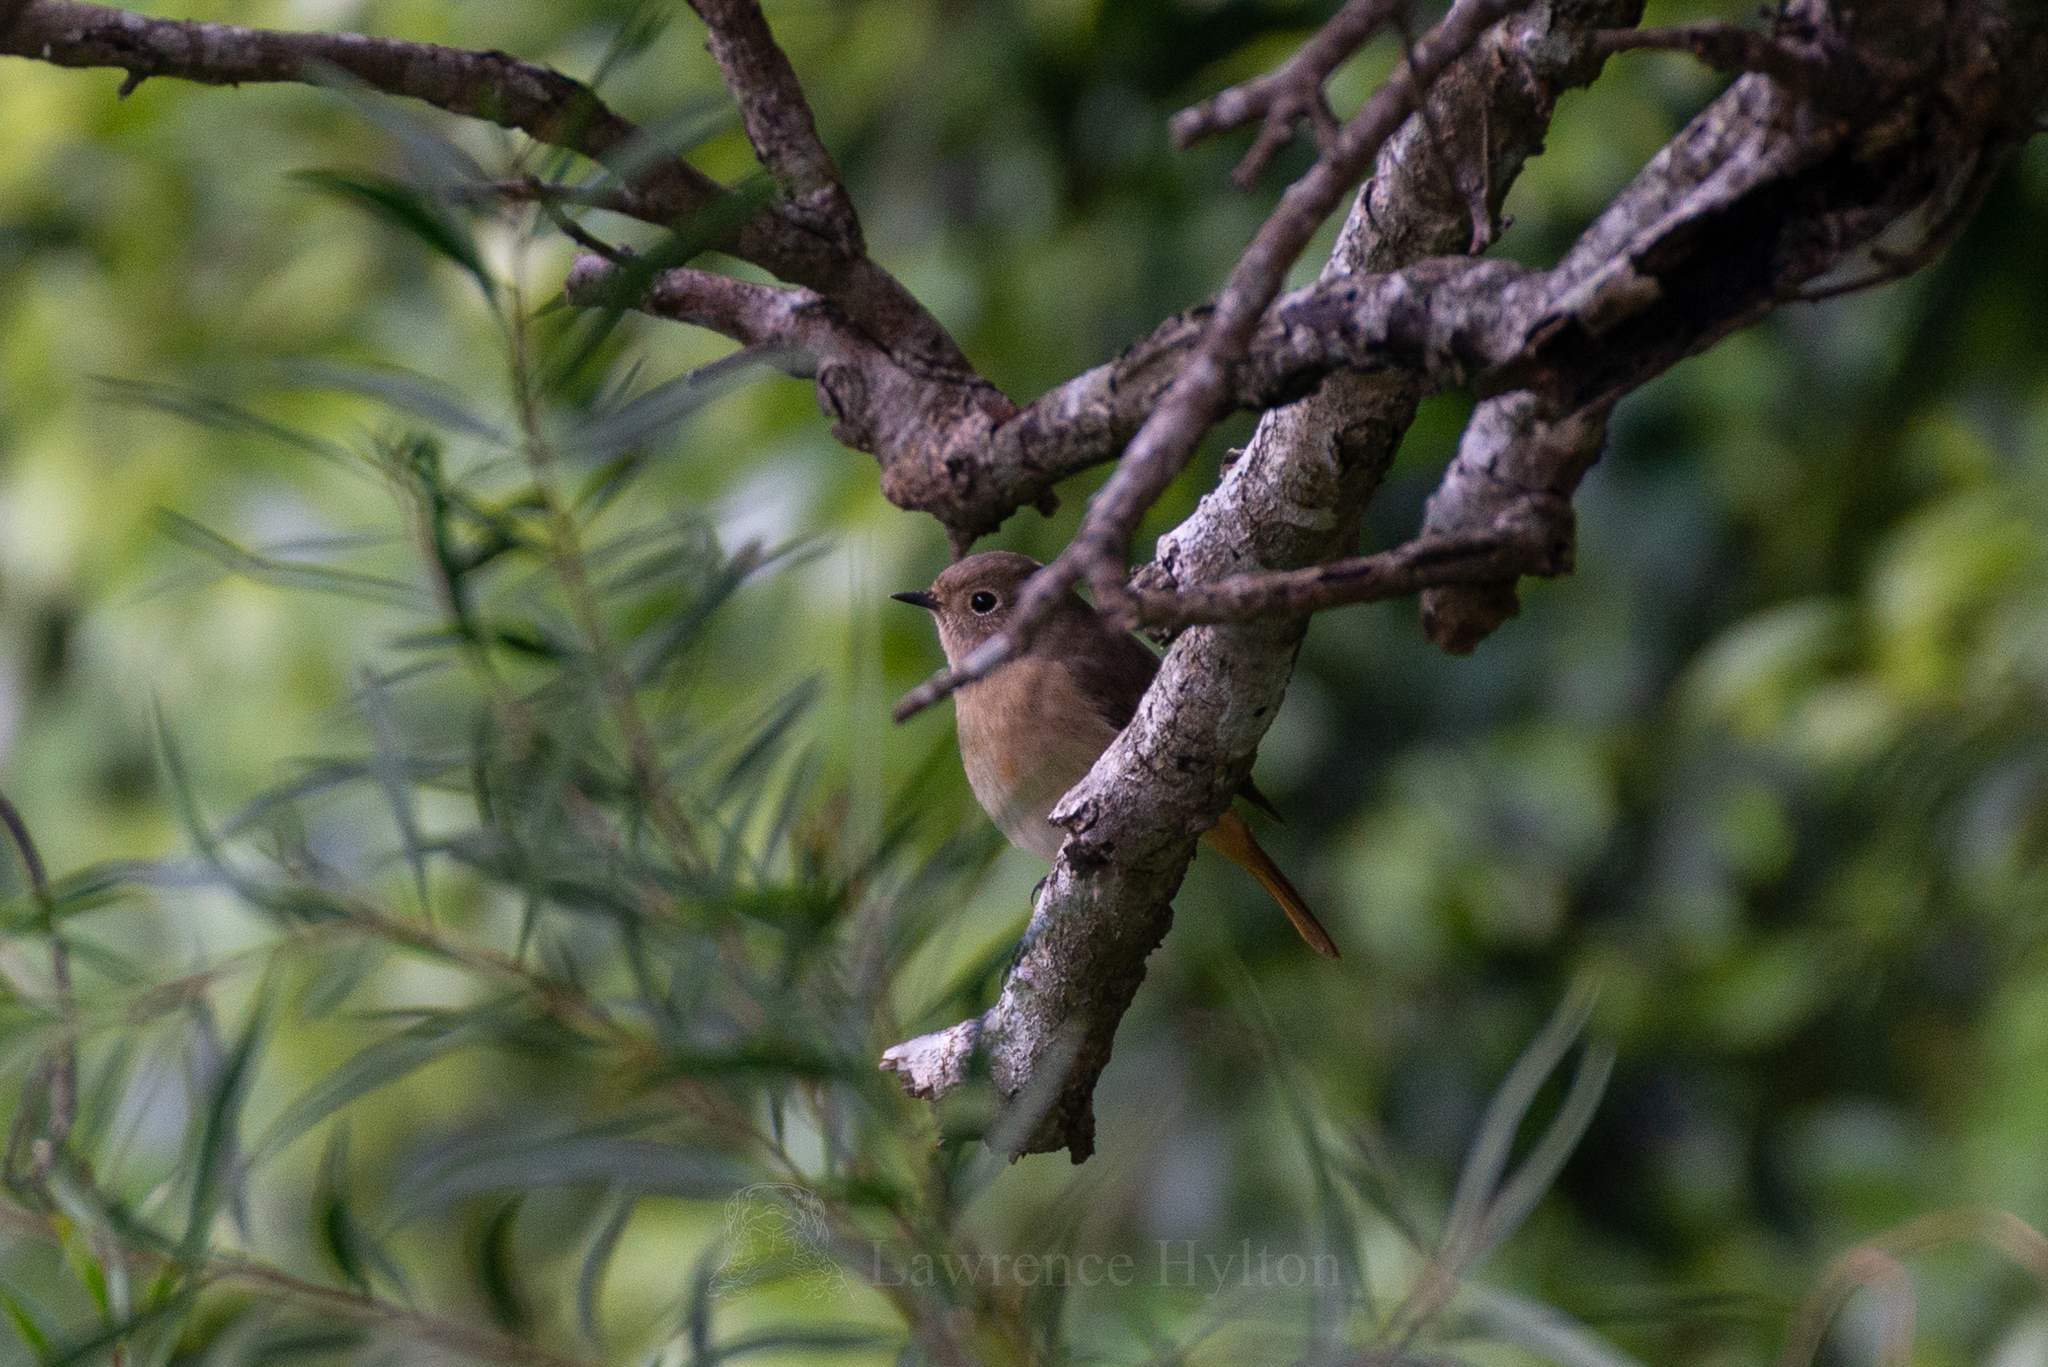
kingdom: Animalia
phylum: Chordata
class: Aves
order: Passeriformes
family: Muscicapidae
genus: Phoenicurus
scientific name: Phoenicurus auroreus
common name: Daurian redstart
